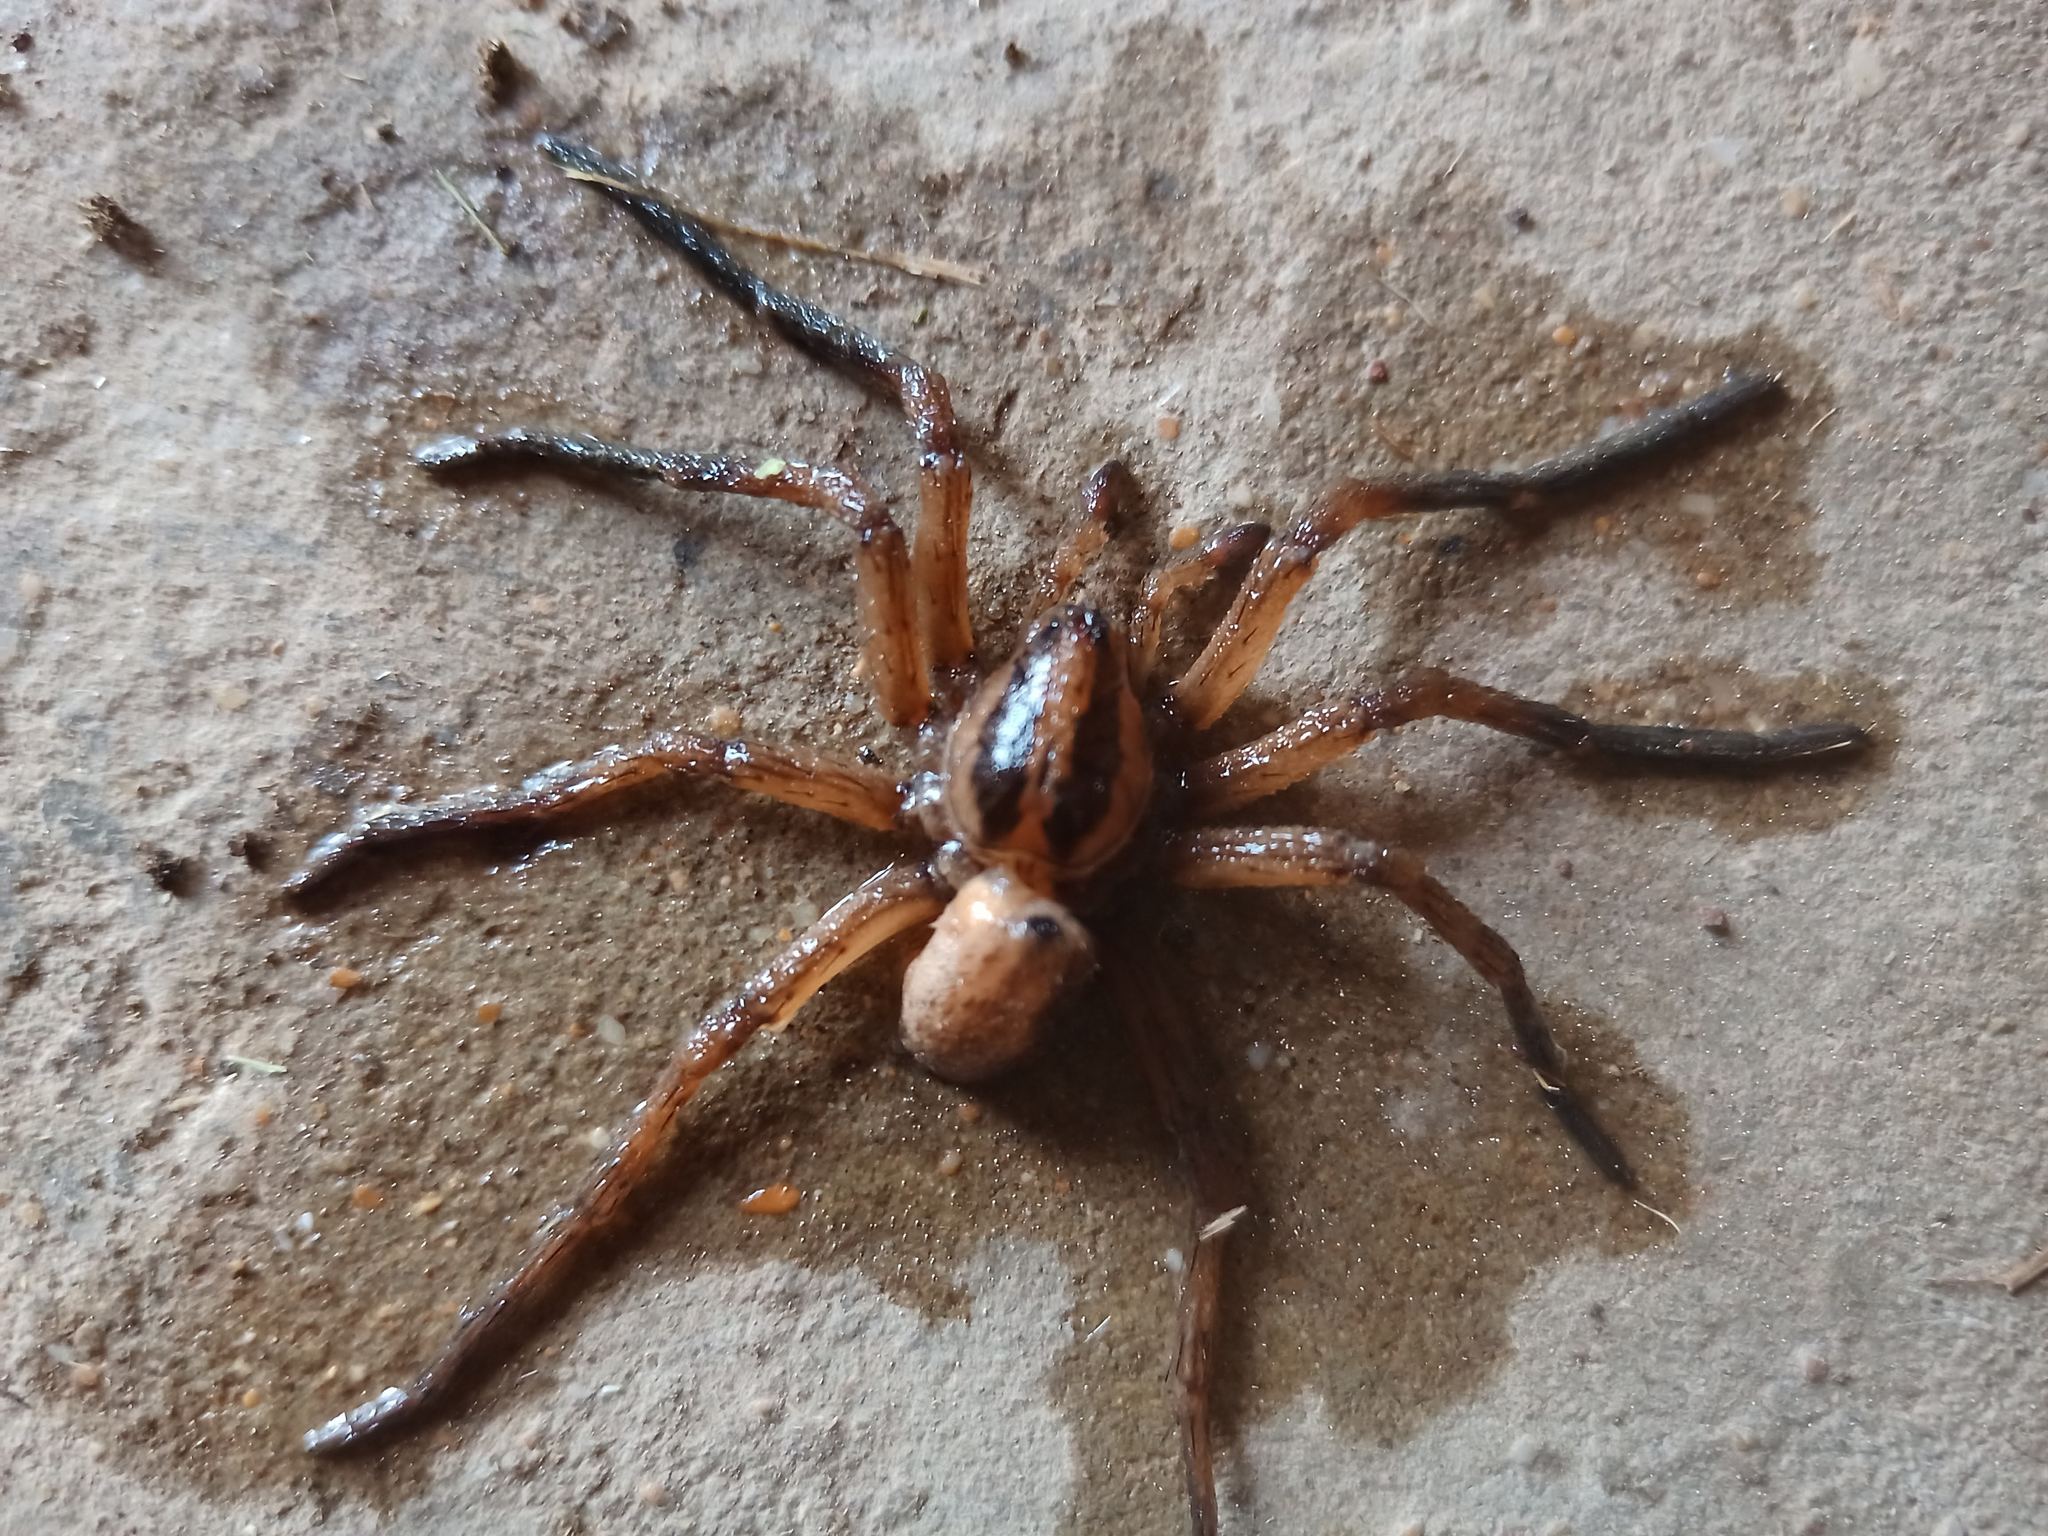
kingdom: Animalia
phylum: Arthropoda
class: Arachnida
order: Araneae
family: Lycosidae
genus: Hogna
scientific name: Hogna ferox
